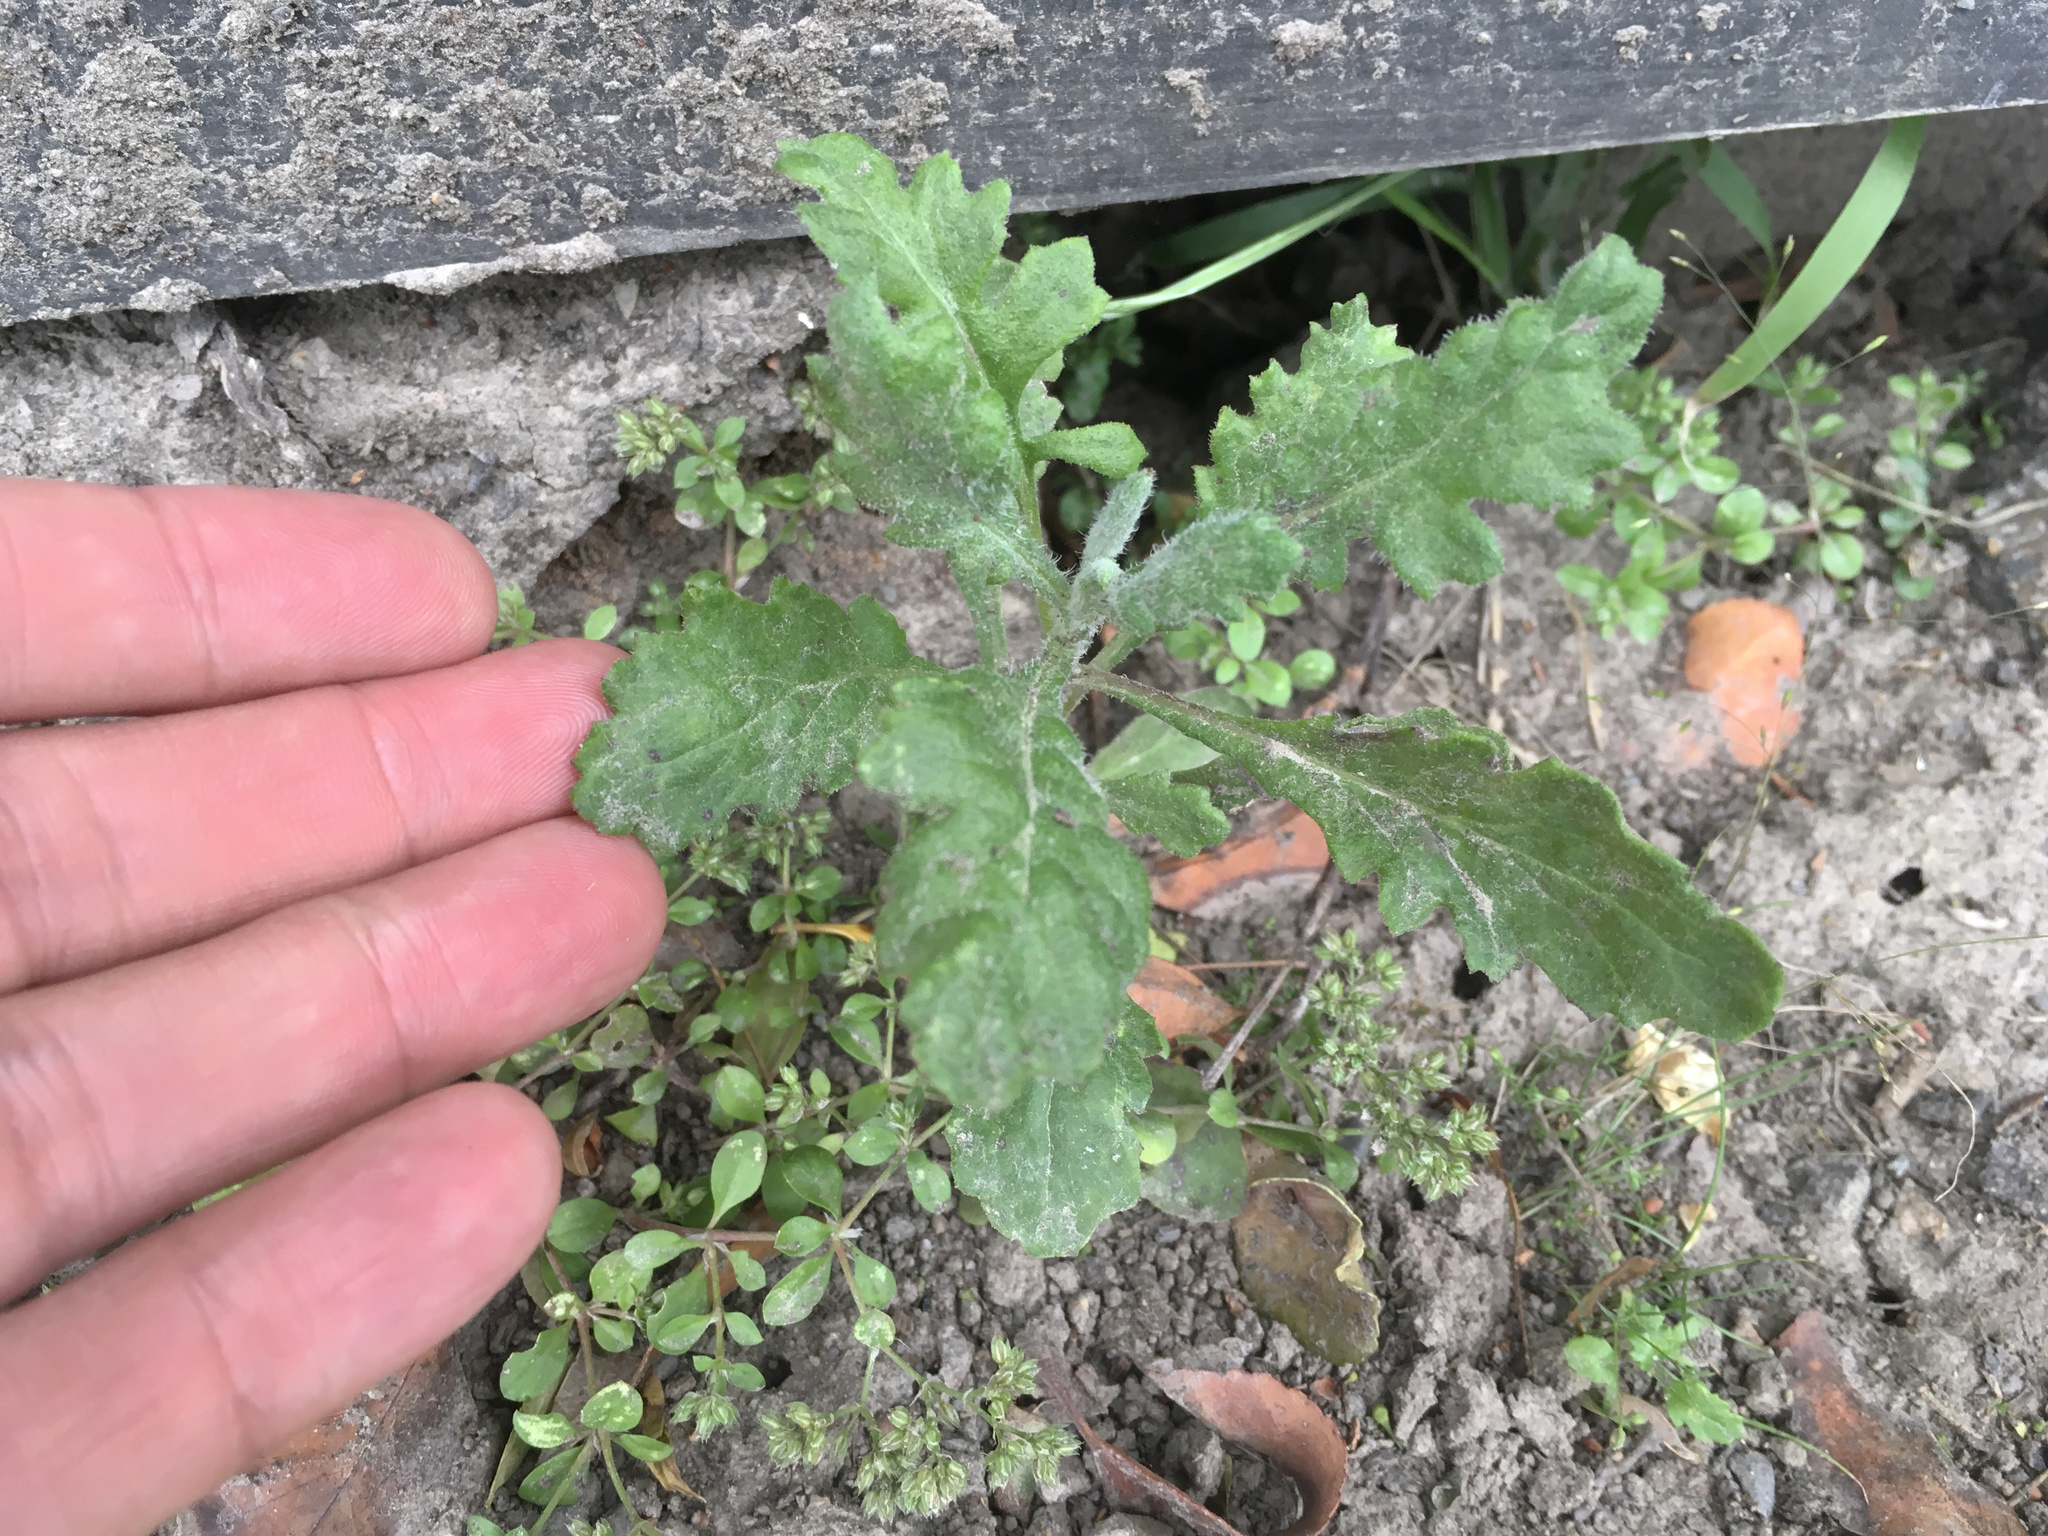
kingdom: Plantae
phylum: Tracheophyta
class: Magnoliopsida
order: Asterales
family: Asteraceae
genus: Senecio
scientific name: Senecio glomeratus
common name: Cutleaf burnweed
